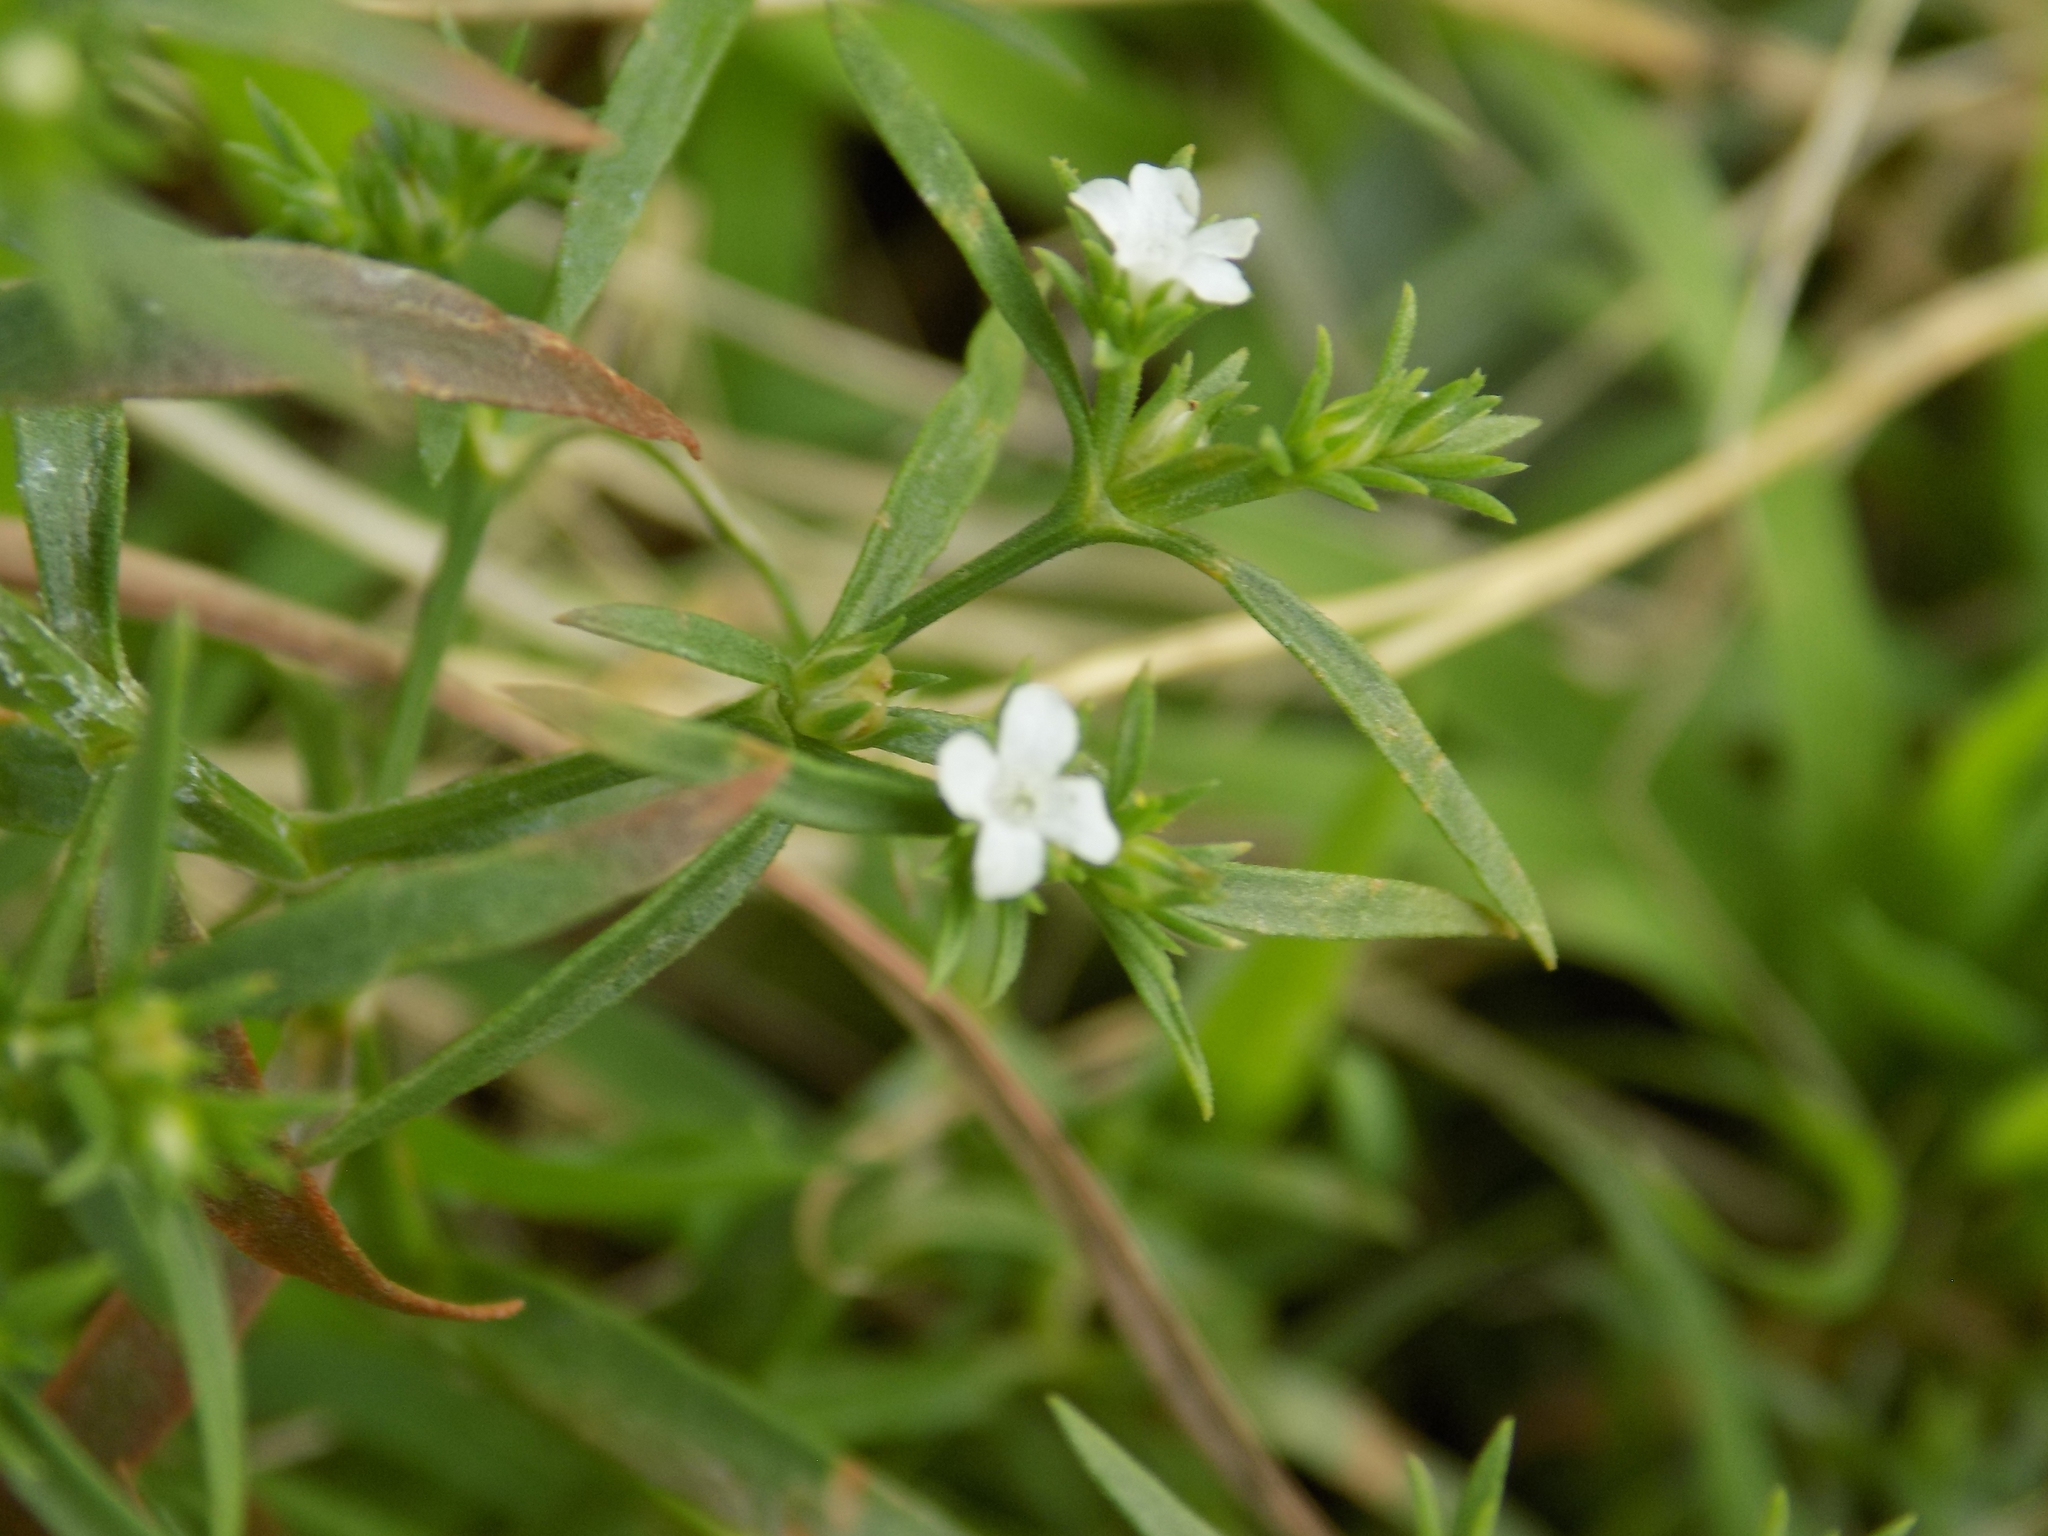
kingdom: Plantae
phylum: Tracheophyta
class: Magnoliopsida
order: Lamiales
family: Tetrachondraceae
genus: Polypremum
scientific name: Polypremum procumbens
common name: Juniper-leaf
